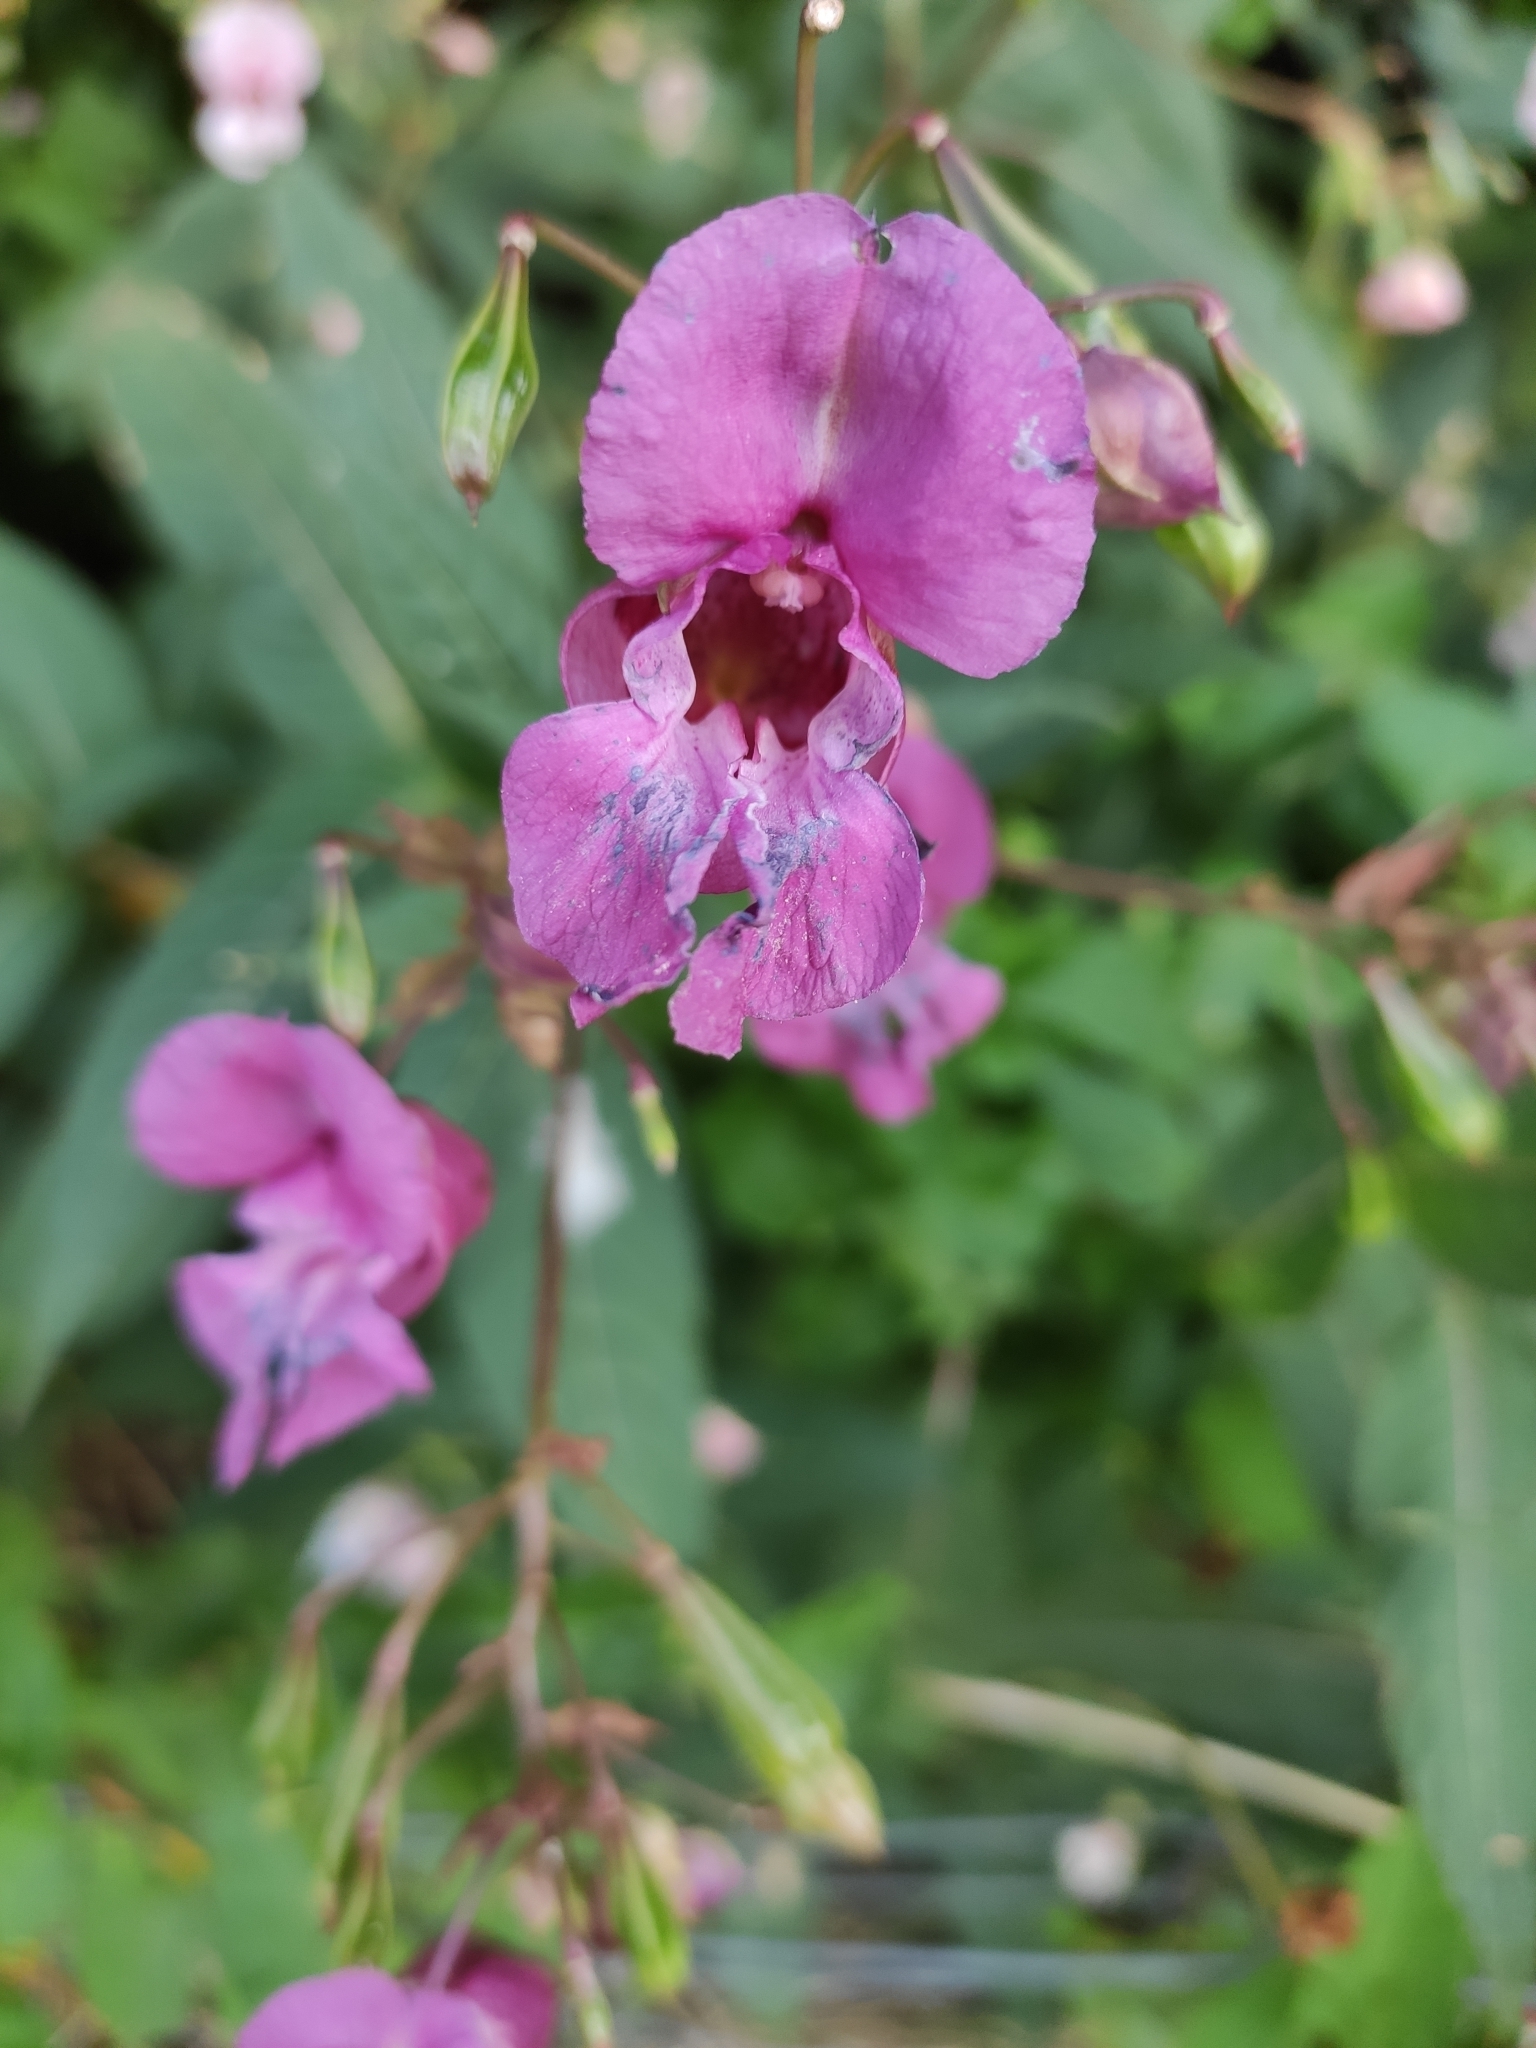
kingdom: Plantae
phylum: Tracheophyta
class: Magnoliopsida
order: Ericales
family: Balsaminaceae
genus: Impatiens
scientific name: Impatiens glandulifera
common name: Himalayan balsam
